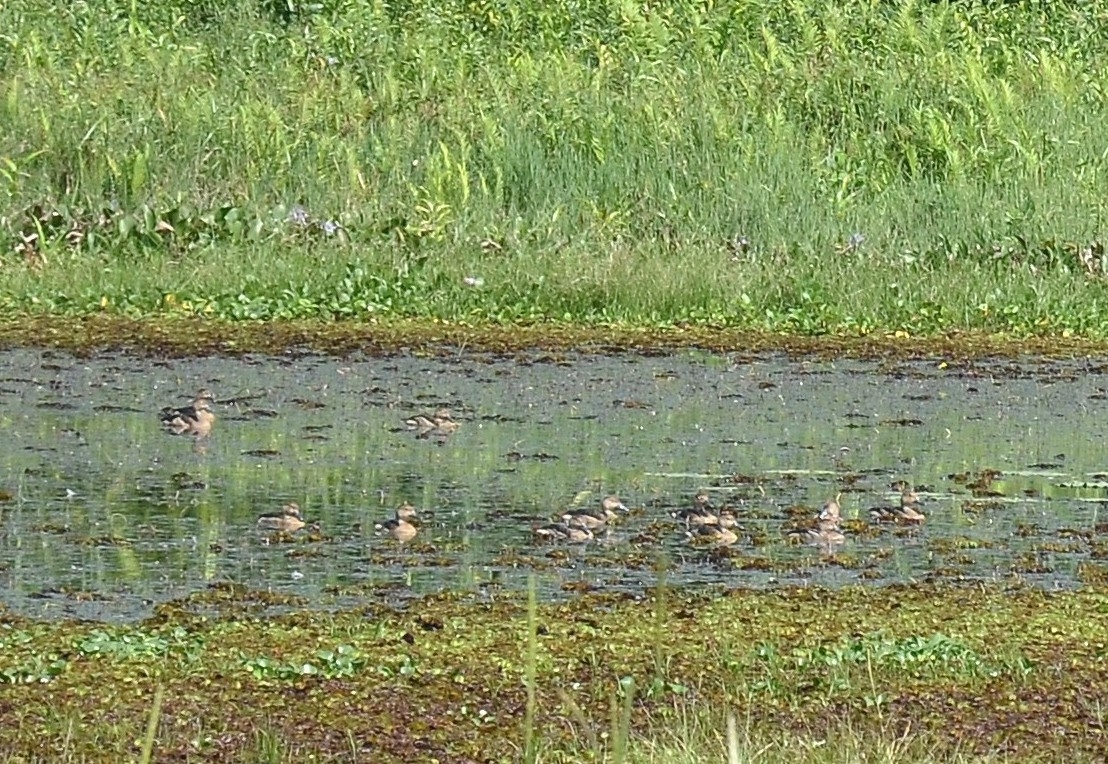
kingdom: Animalia
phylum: Chordata
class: Aves
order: Anseriformes
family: Anatidae
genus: Dendrocygna
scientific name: Dendrocygna javanica
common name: Lesser whistling-duck
